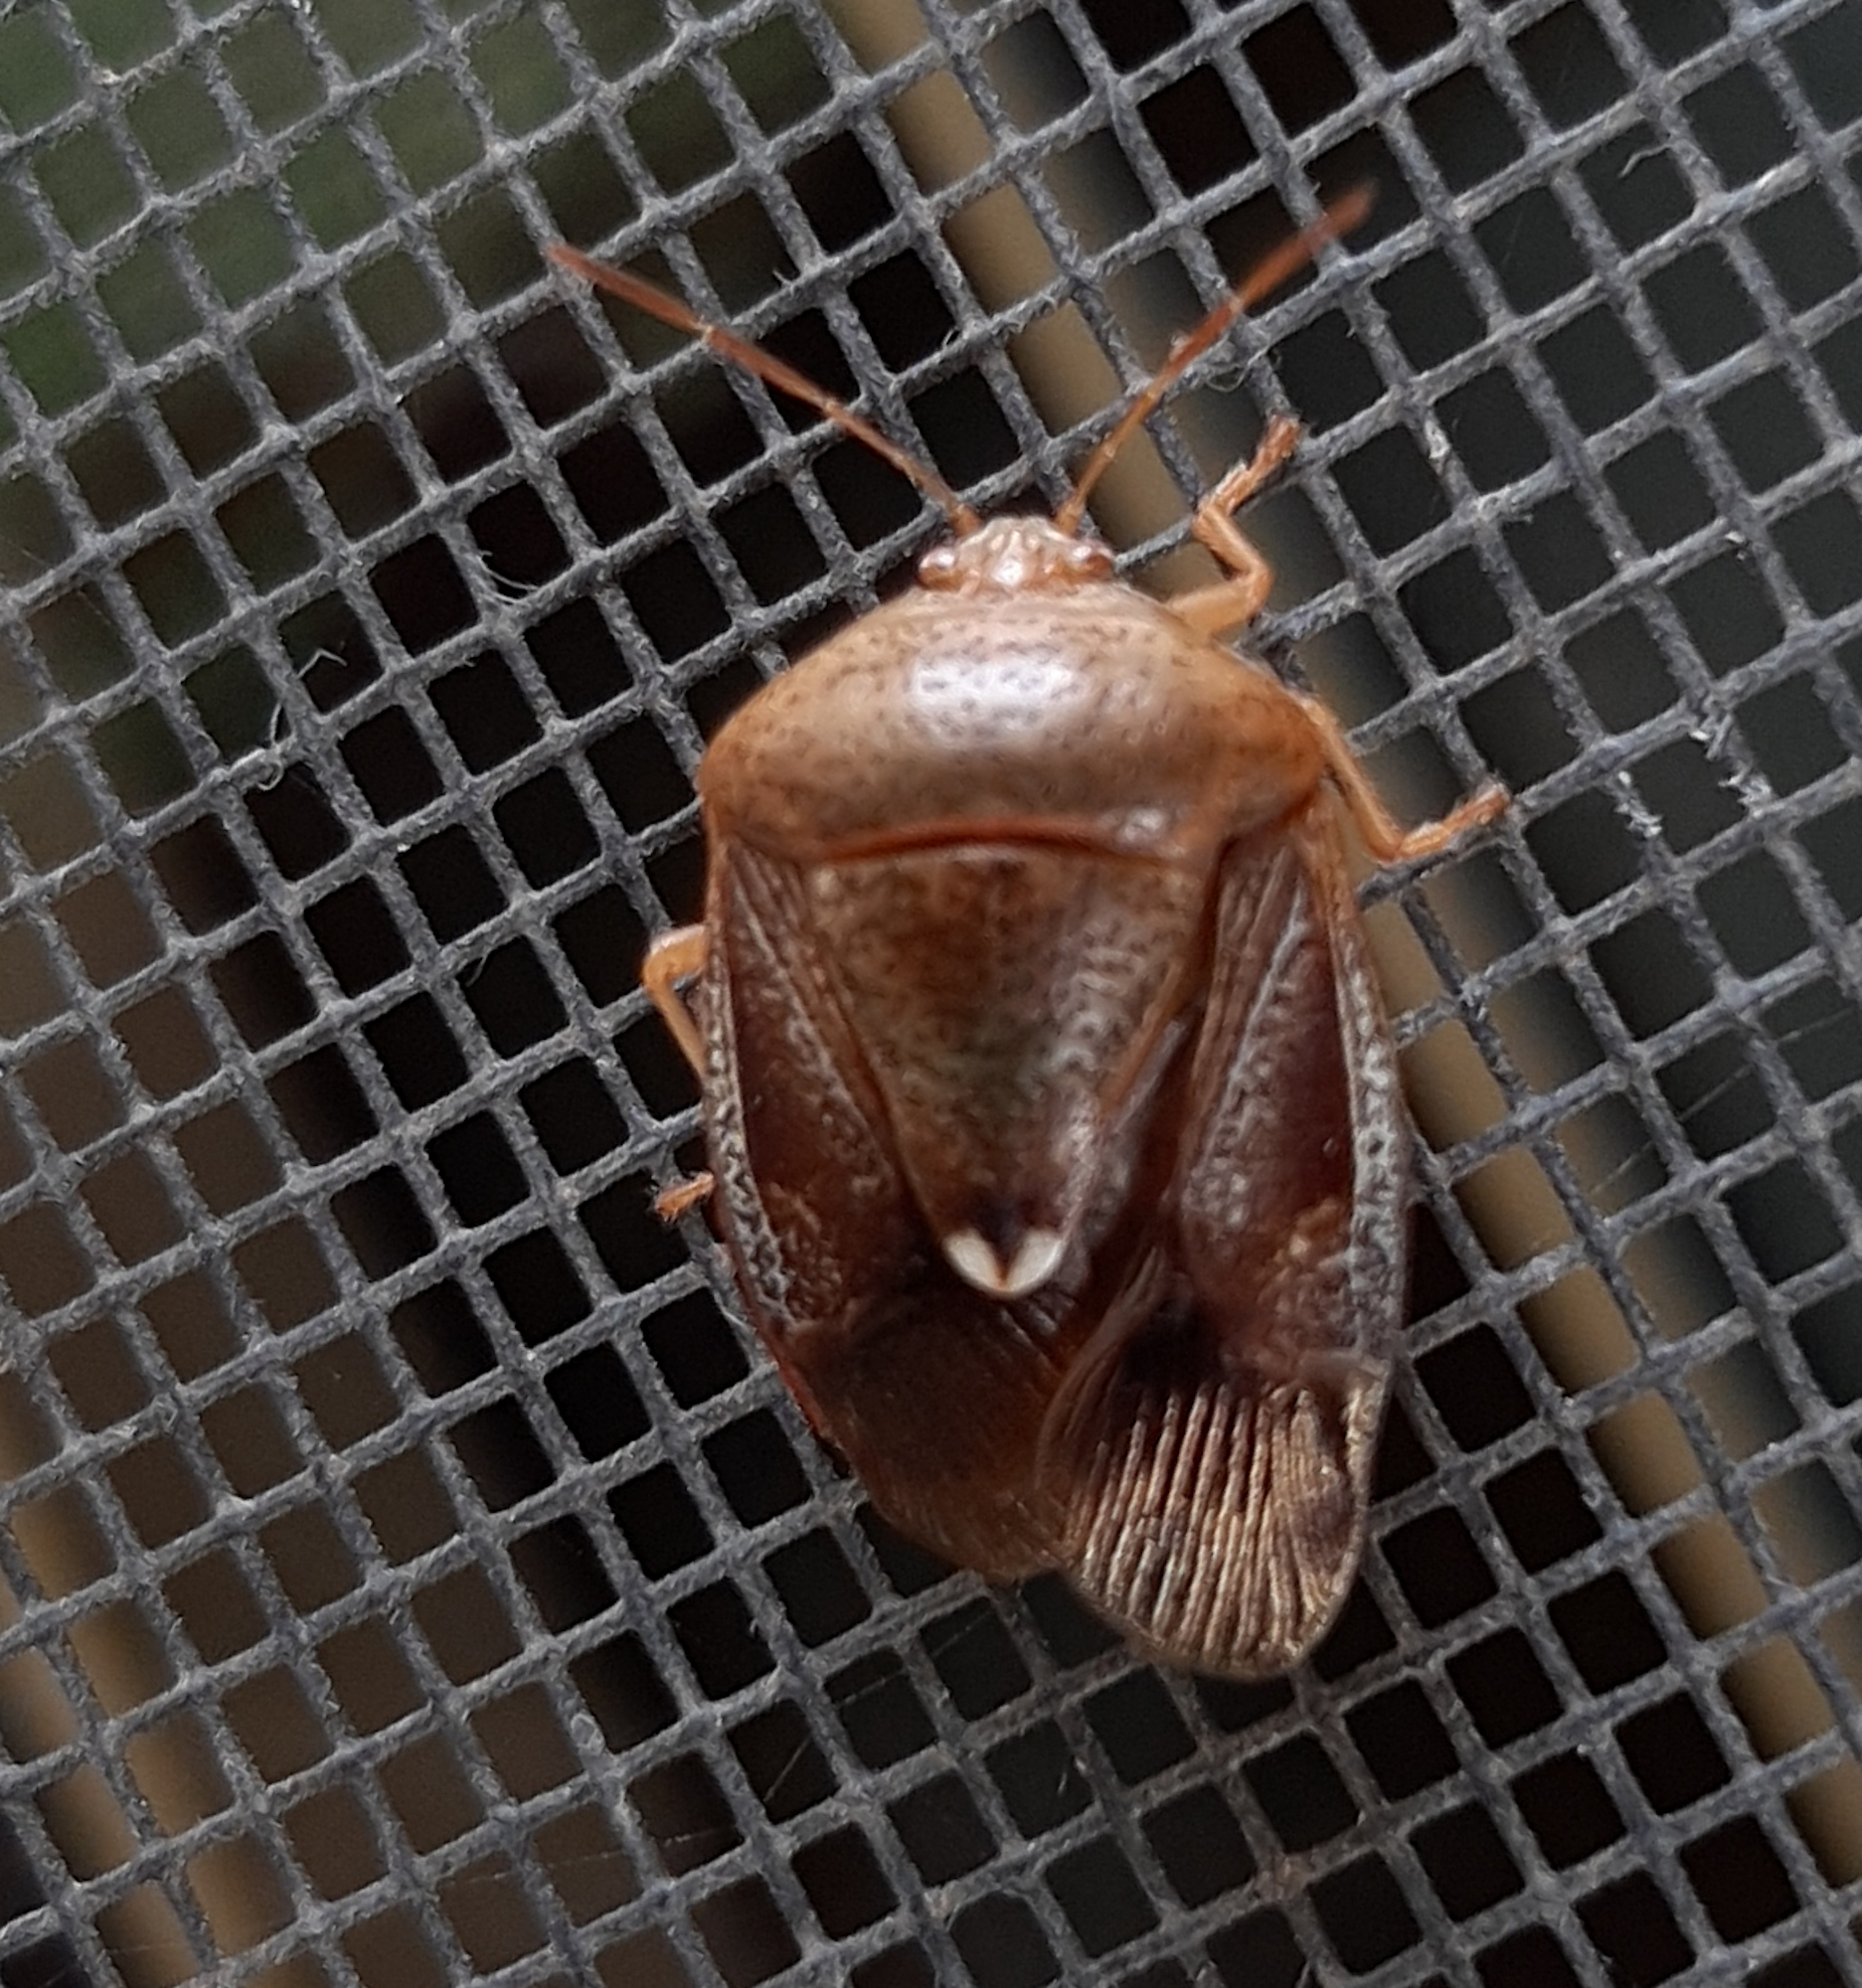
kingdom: Animalia
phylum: Arthropoda
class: Insecta
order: Hemiptera
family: Pentatomidae
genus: Edessa
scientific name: Edessa bifida
